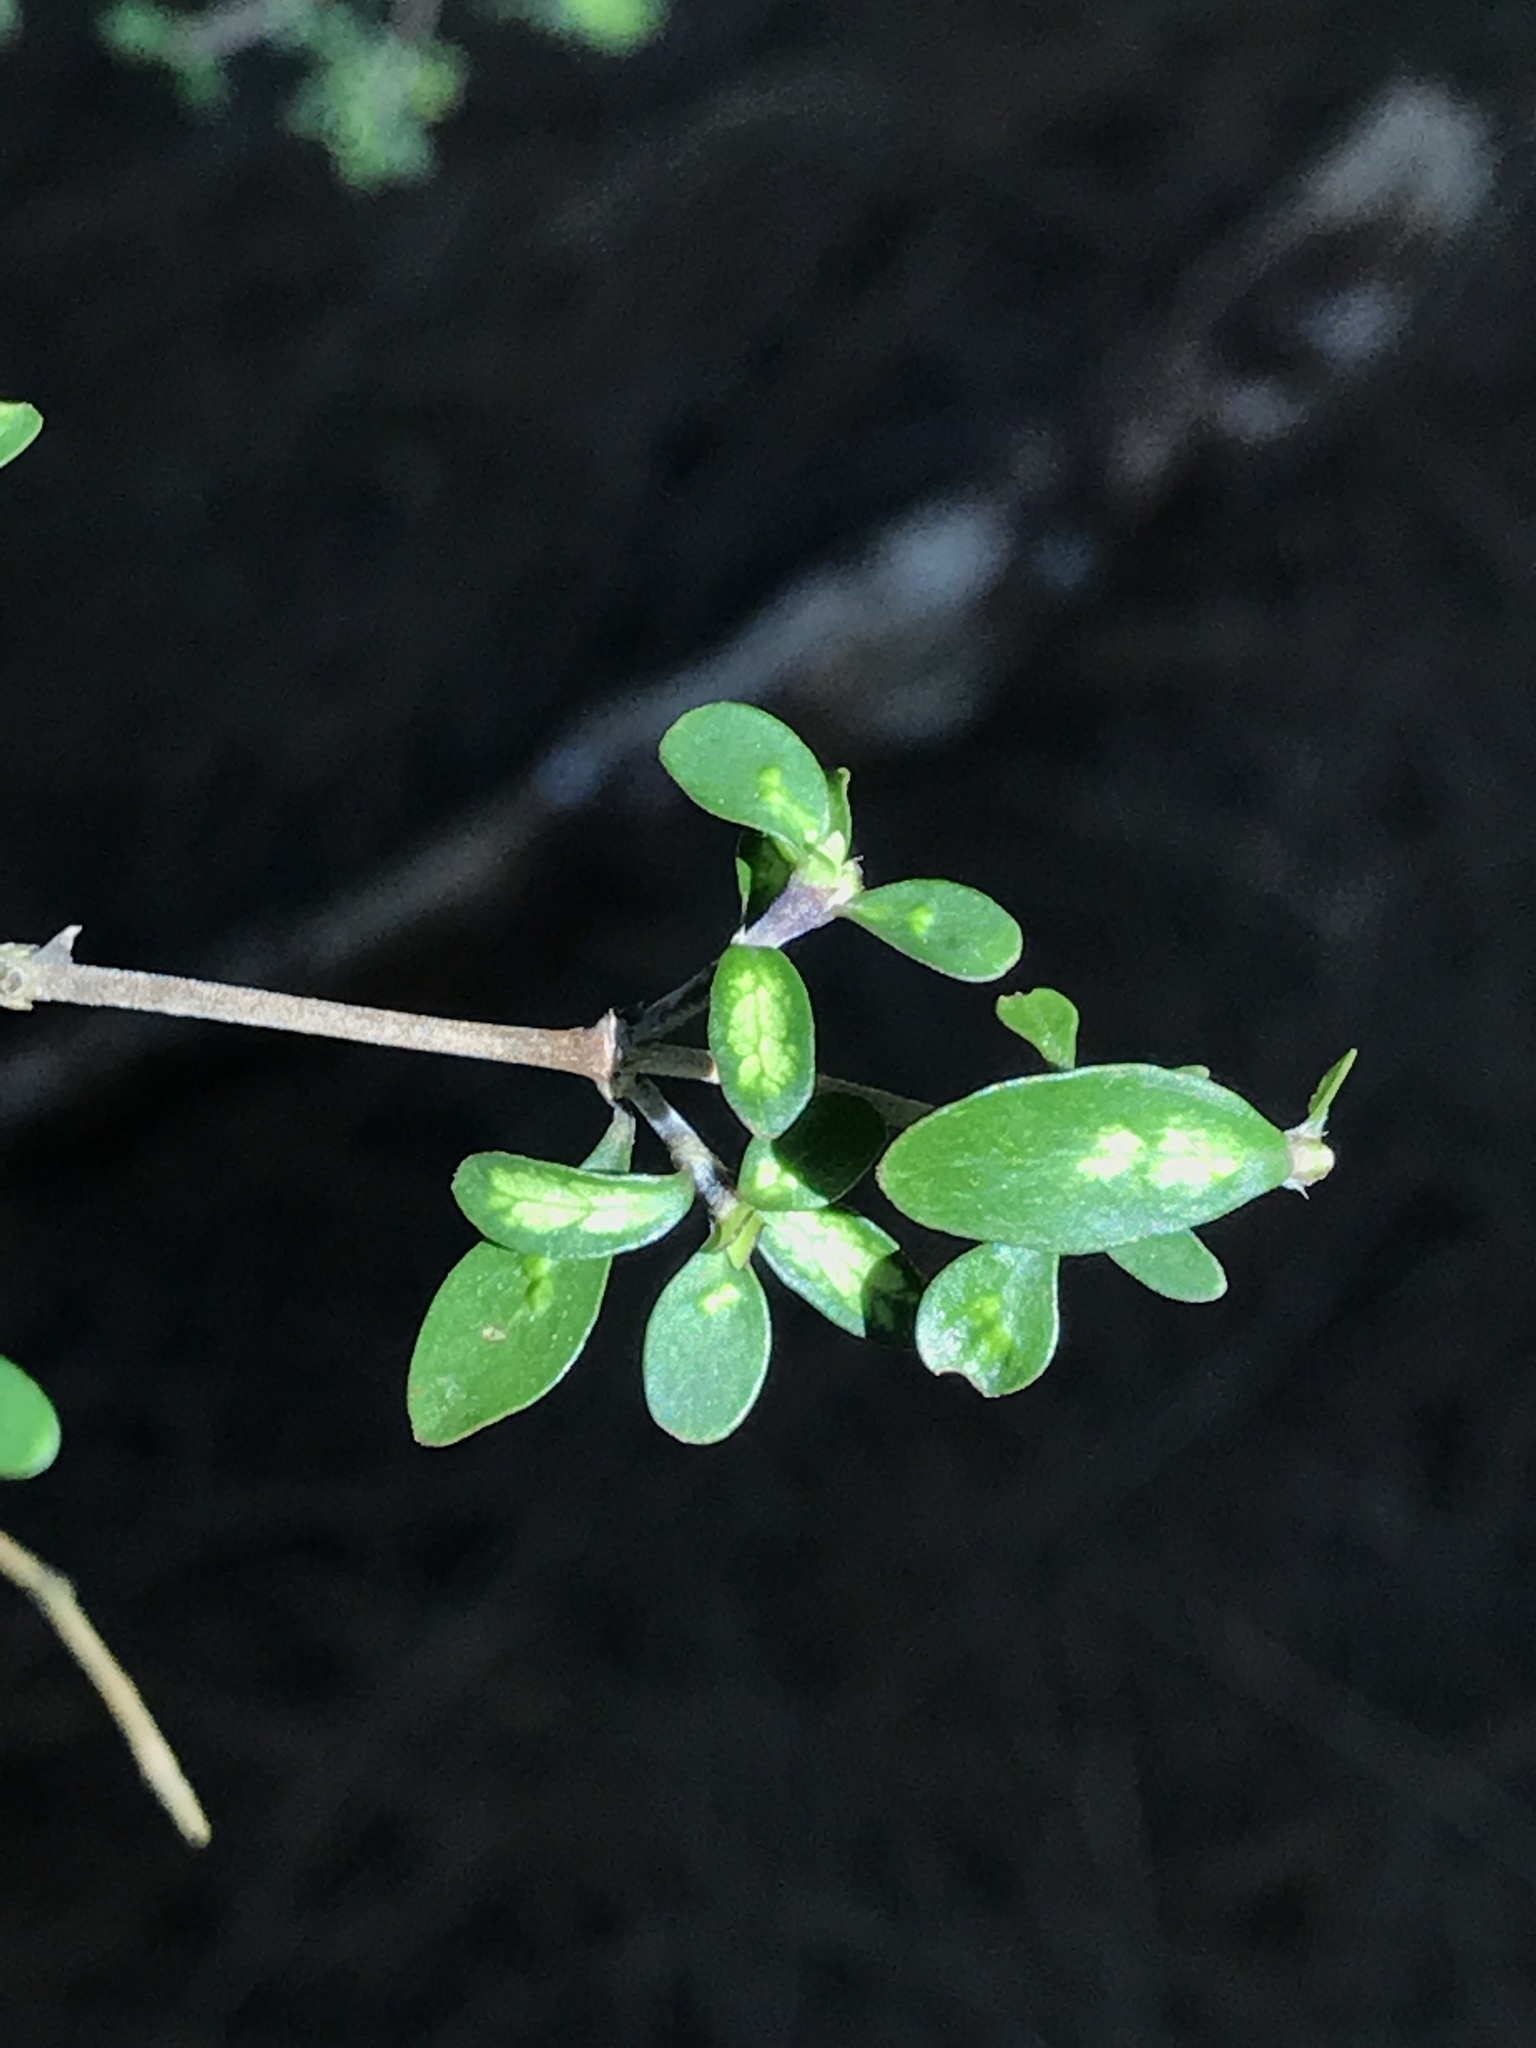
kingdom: Plantae
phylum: Tracheophyta
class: Magnoliopsida
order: Gentianales
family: Rubiaceae
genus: Coprosma
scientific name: Coprosma dumosa
